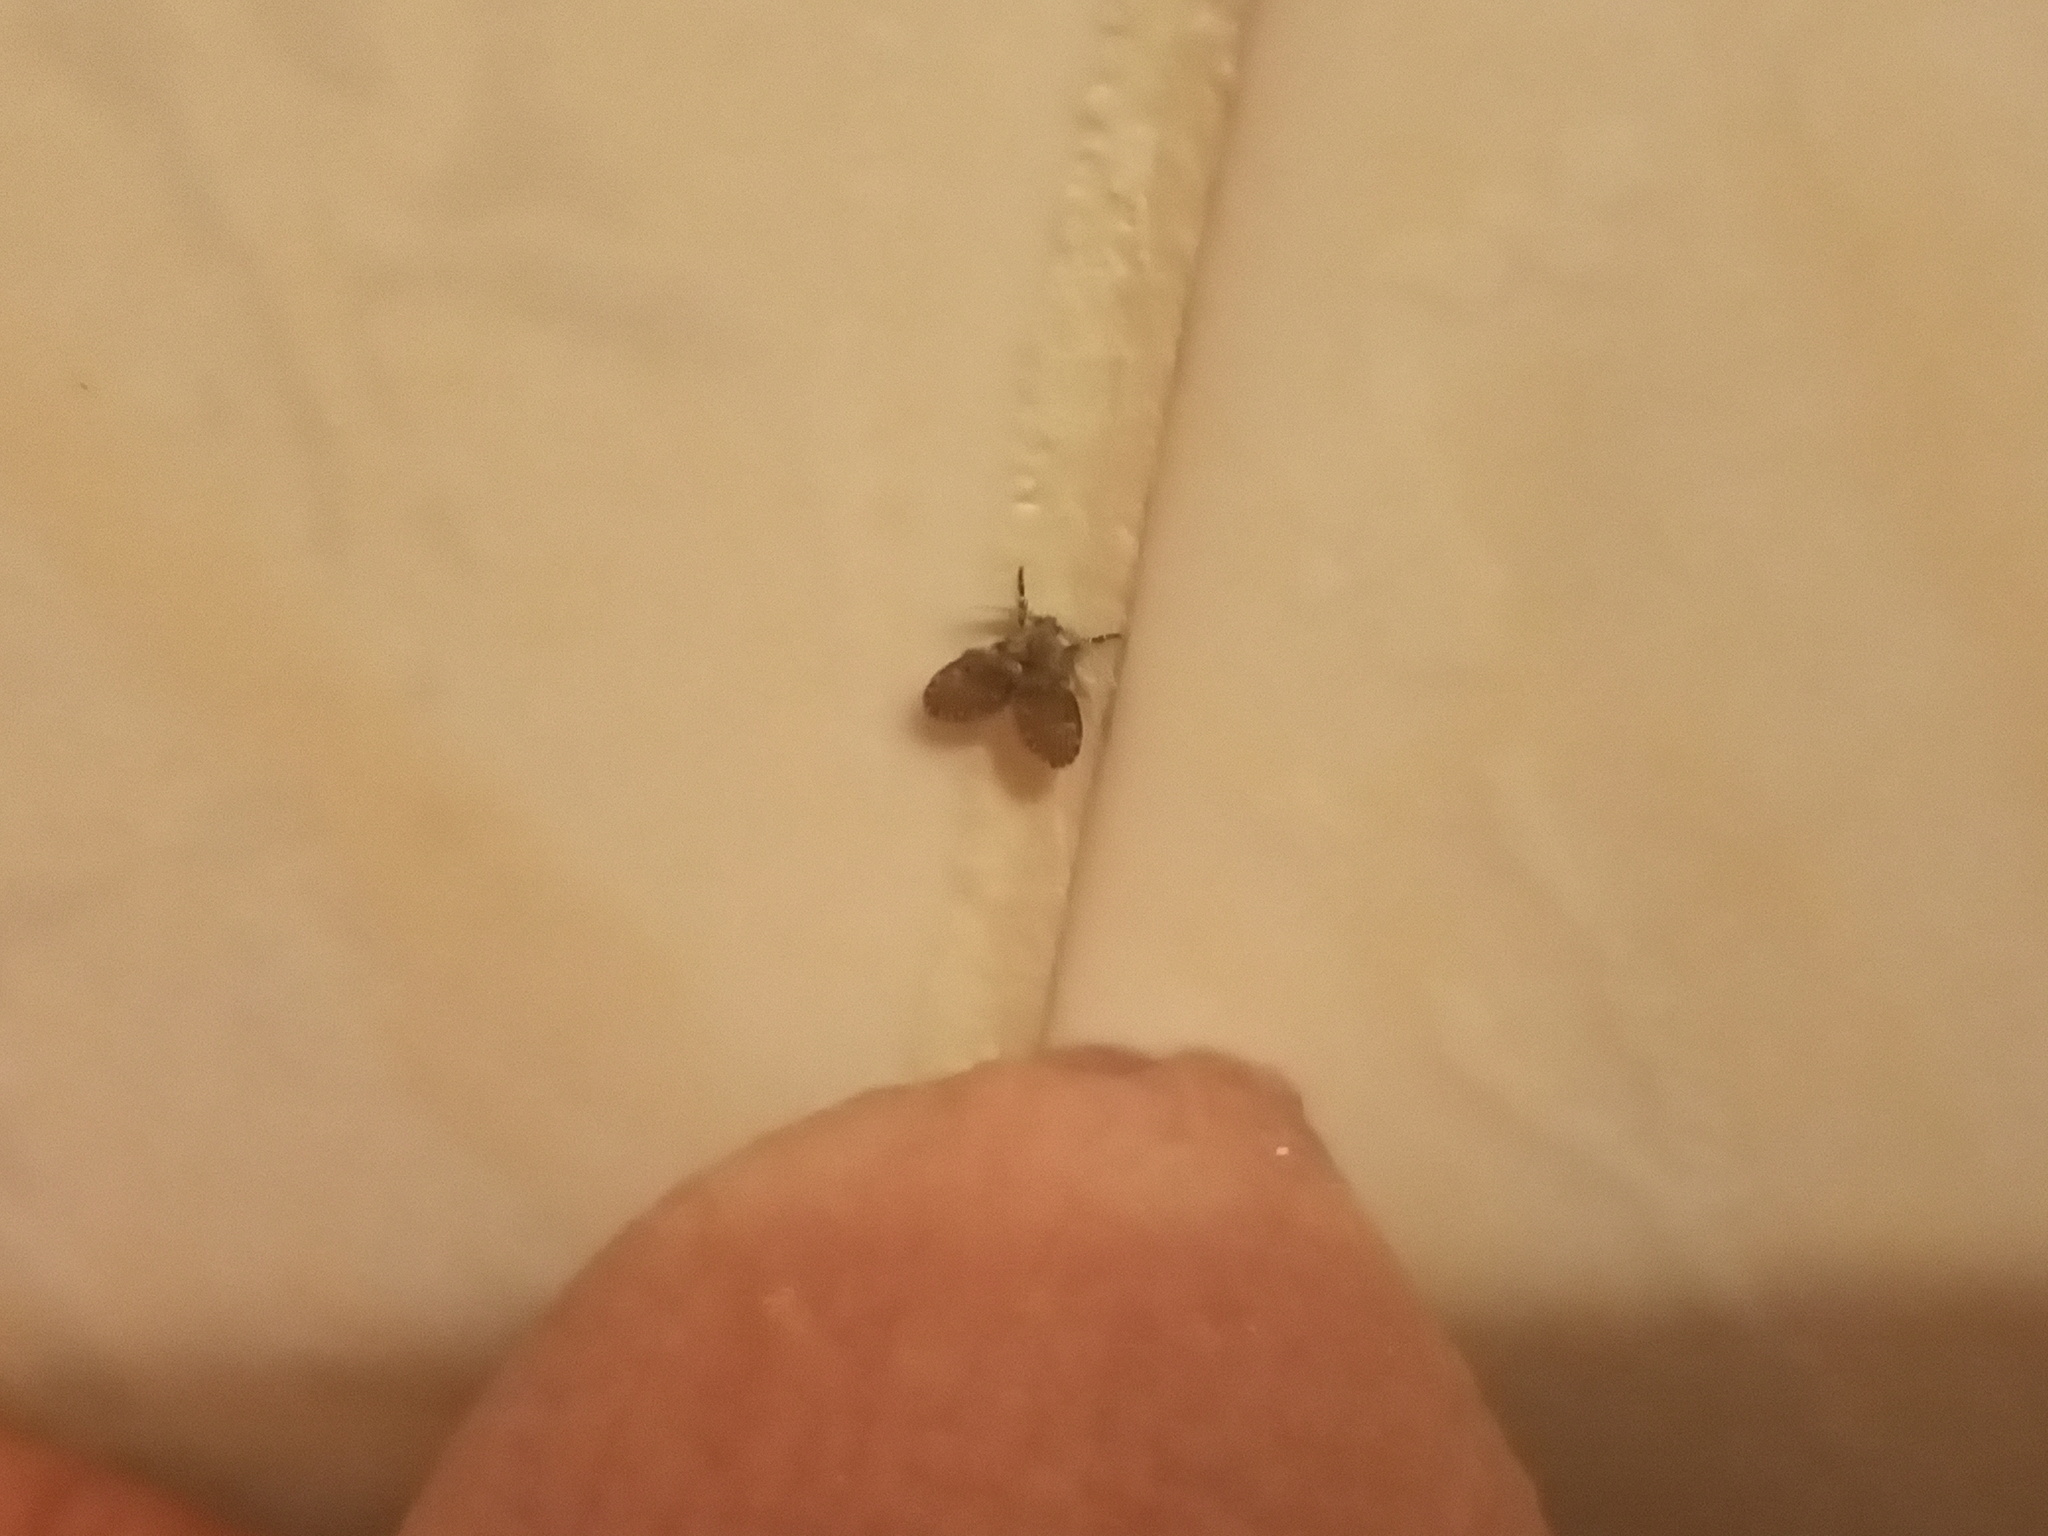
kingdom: Animalia
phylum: Arthropoda
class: Insecta
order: Diptera
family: Psychodidae
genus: Clogmia
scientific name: Clogmia albipunctatus
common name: White-spotted moth fly
